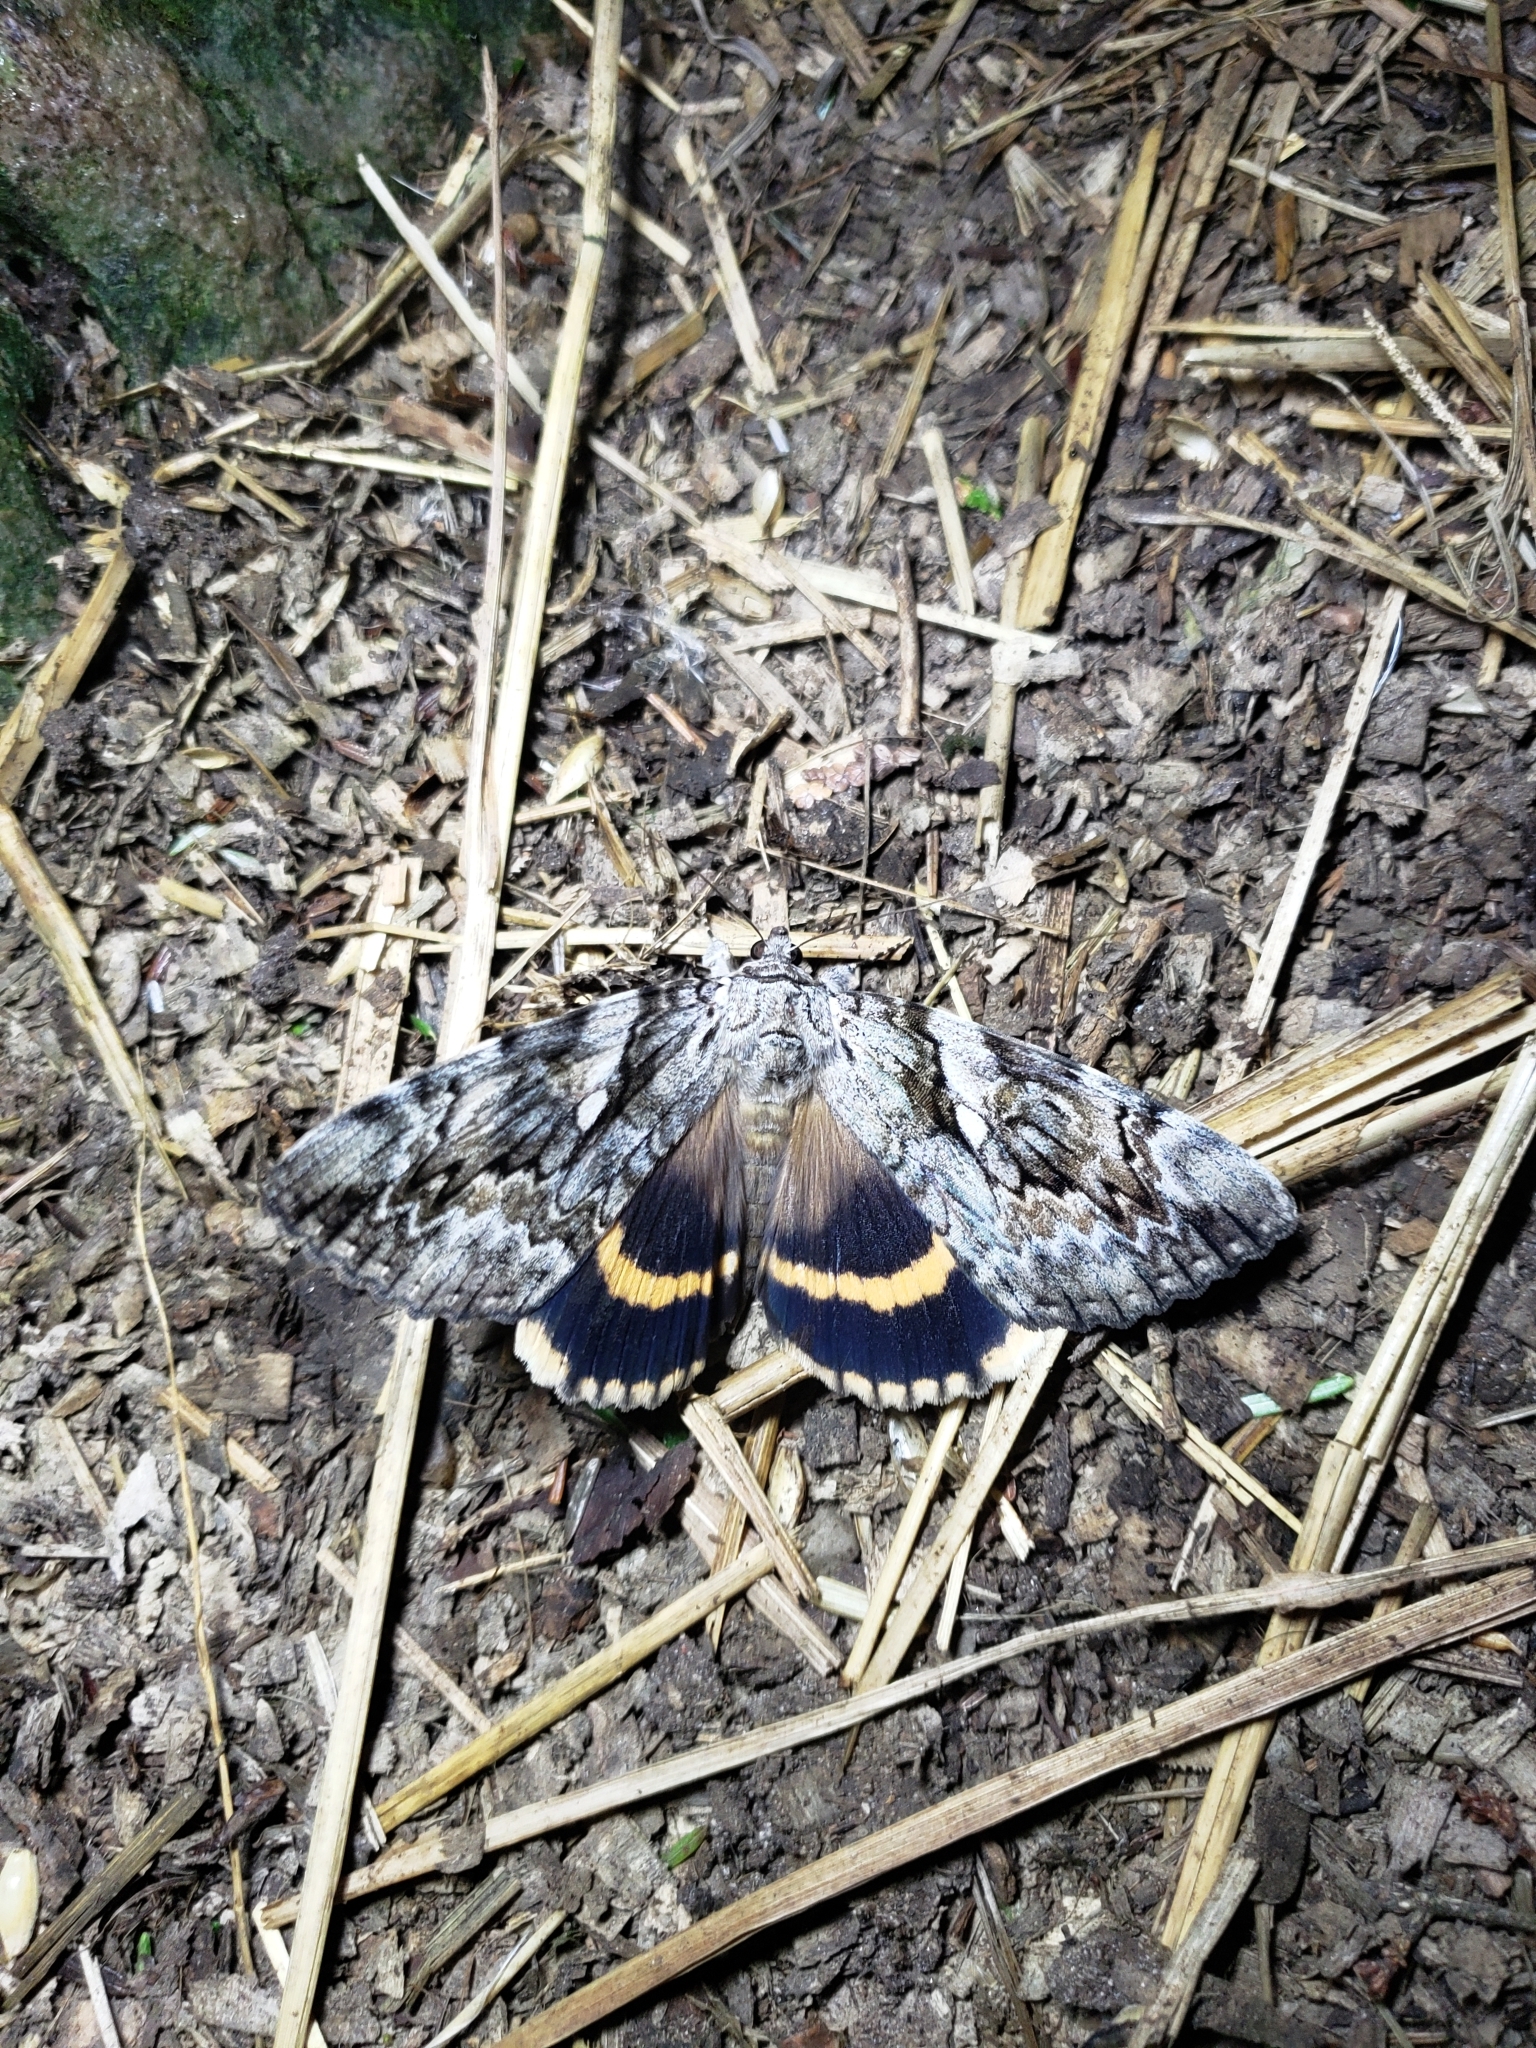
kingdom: Animalia
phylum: Arthropoda
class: Insecta
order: Lepidoptera
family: Erebidae
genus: Catocala
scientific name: Catocala cerogama
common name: Yellow banded underwing
